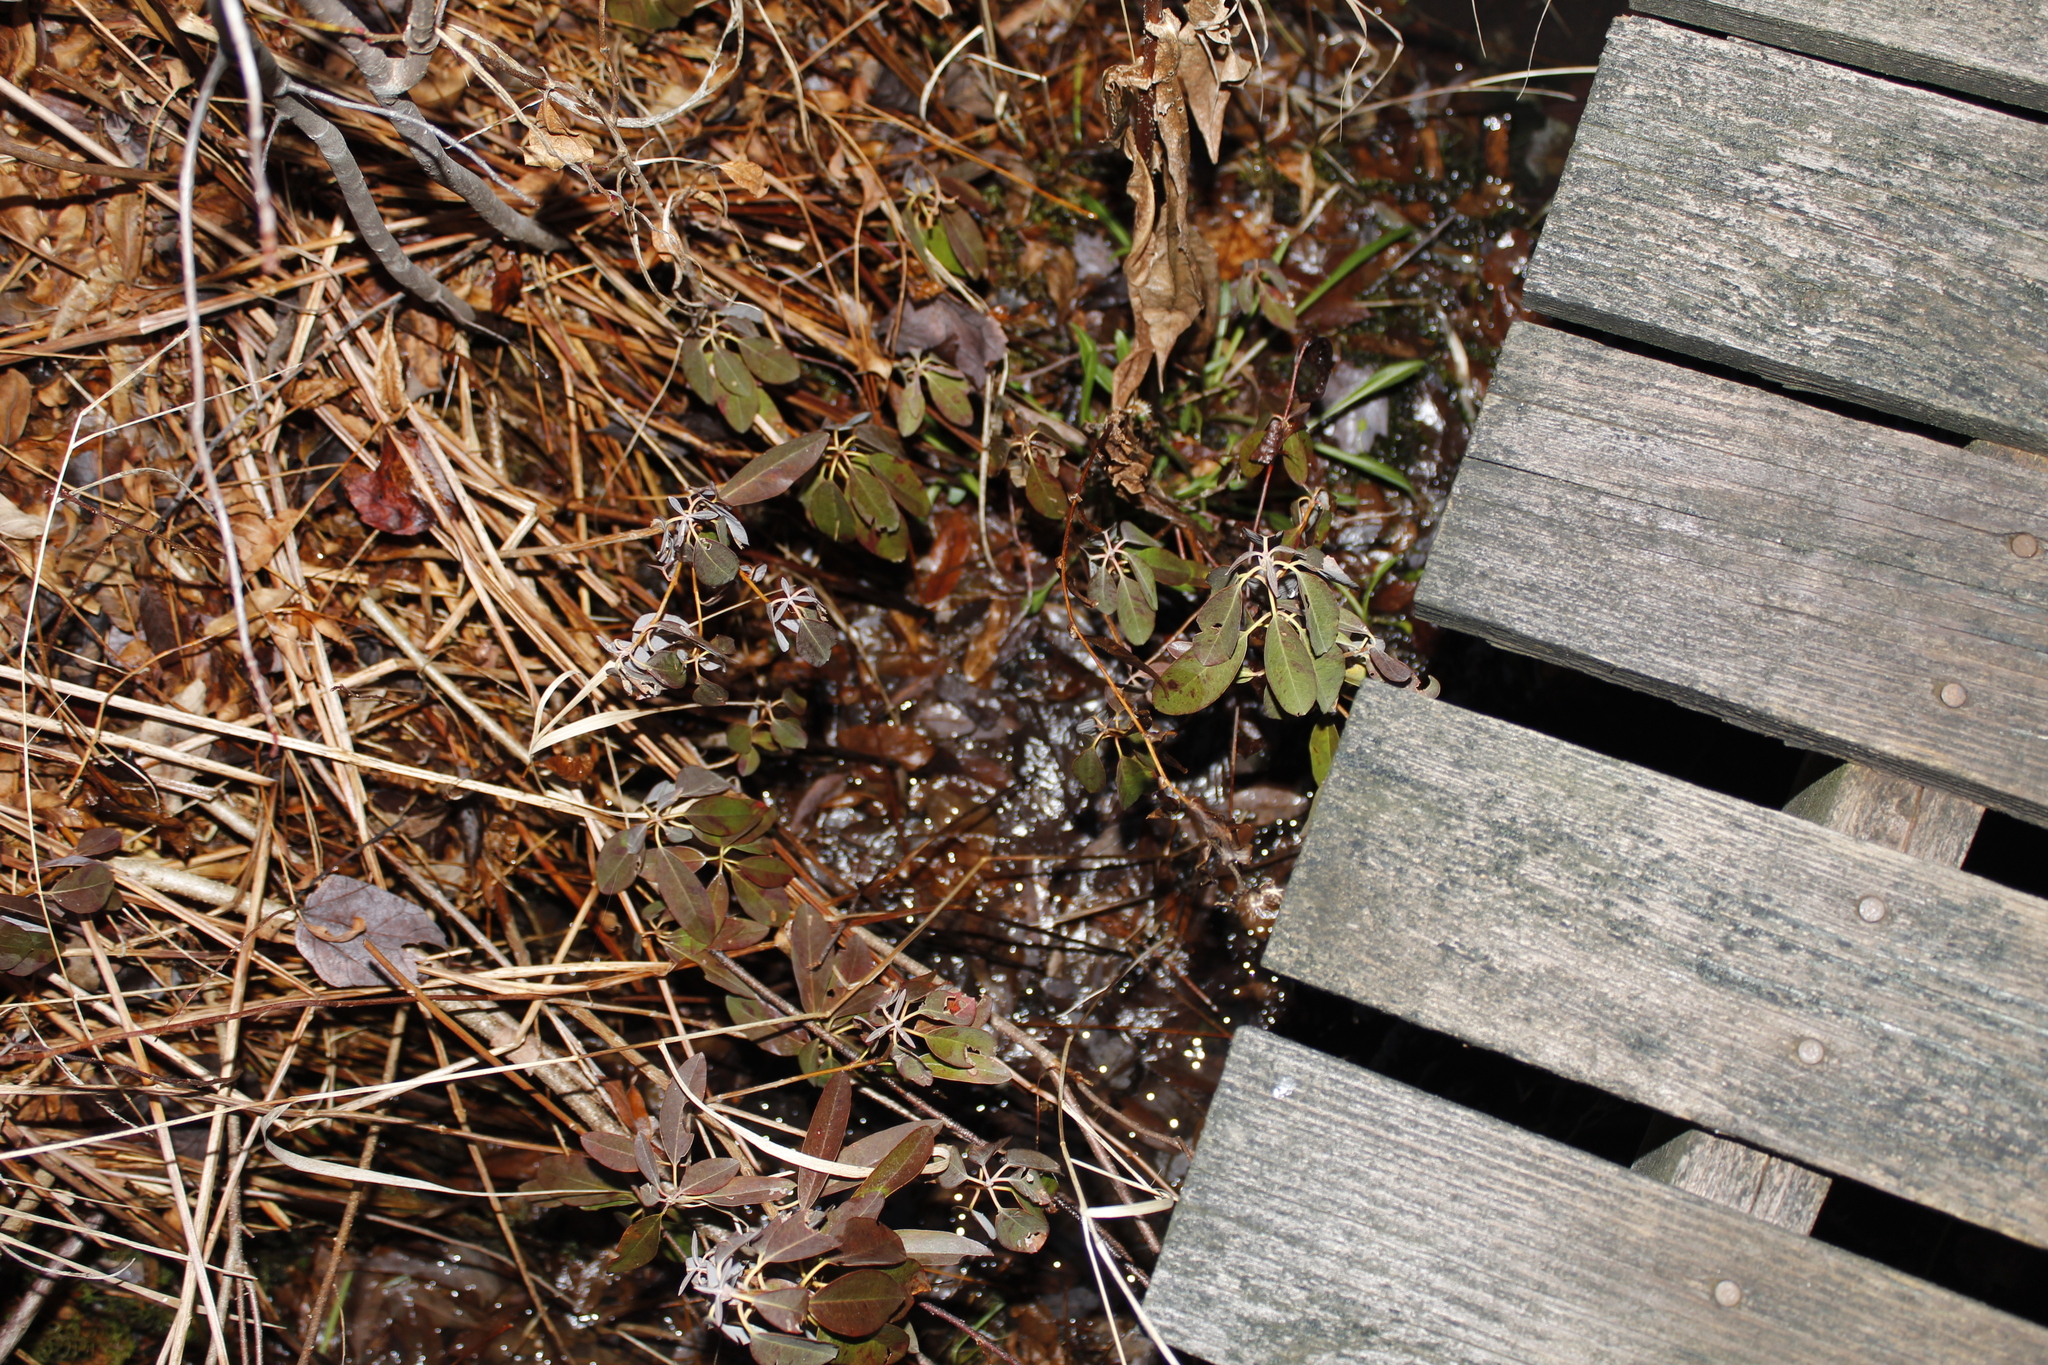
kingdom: Plantae
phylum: Tracheophyta
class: Magnoliopsida
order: Ericales
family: Ericaceae
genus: Kalmia
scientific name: Kalmia angustifolia
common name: Sheep-laurel
